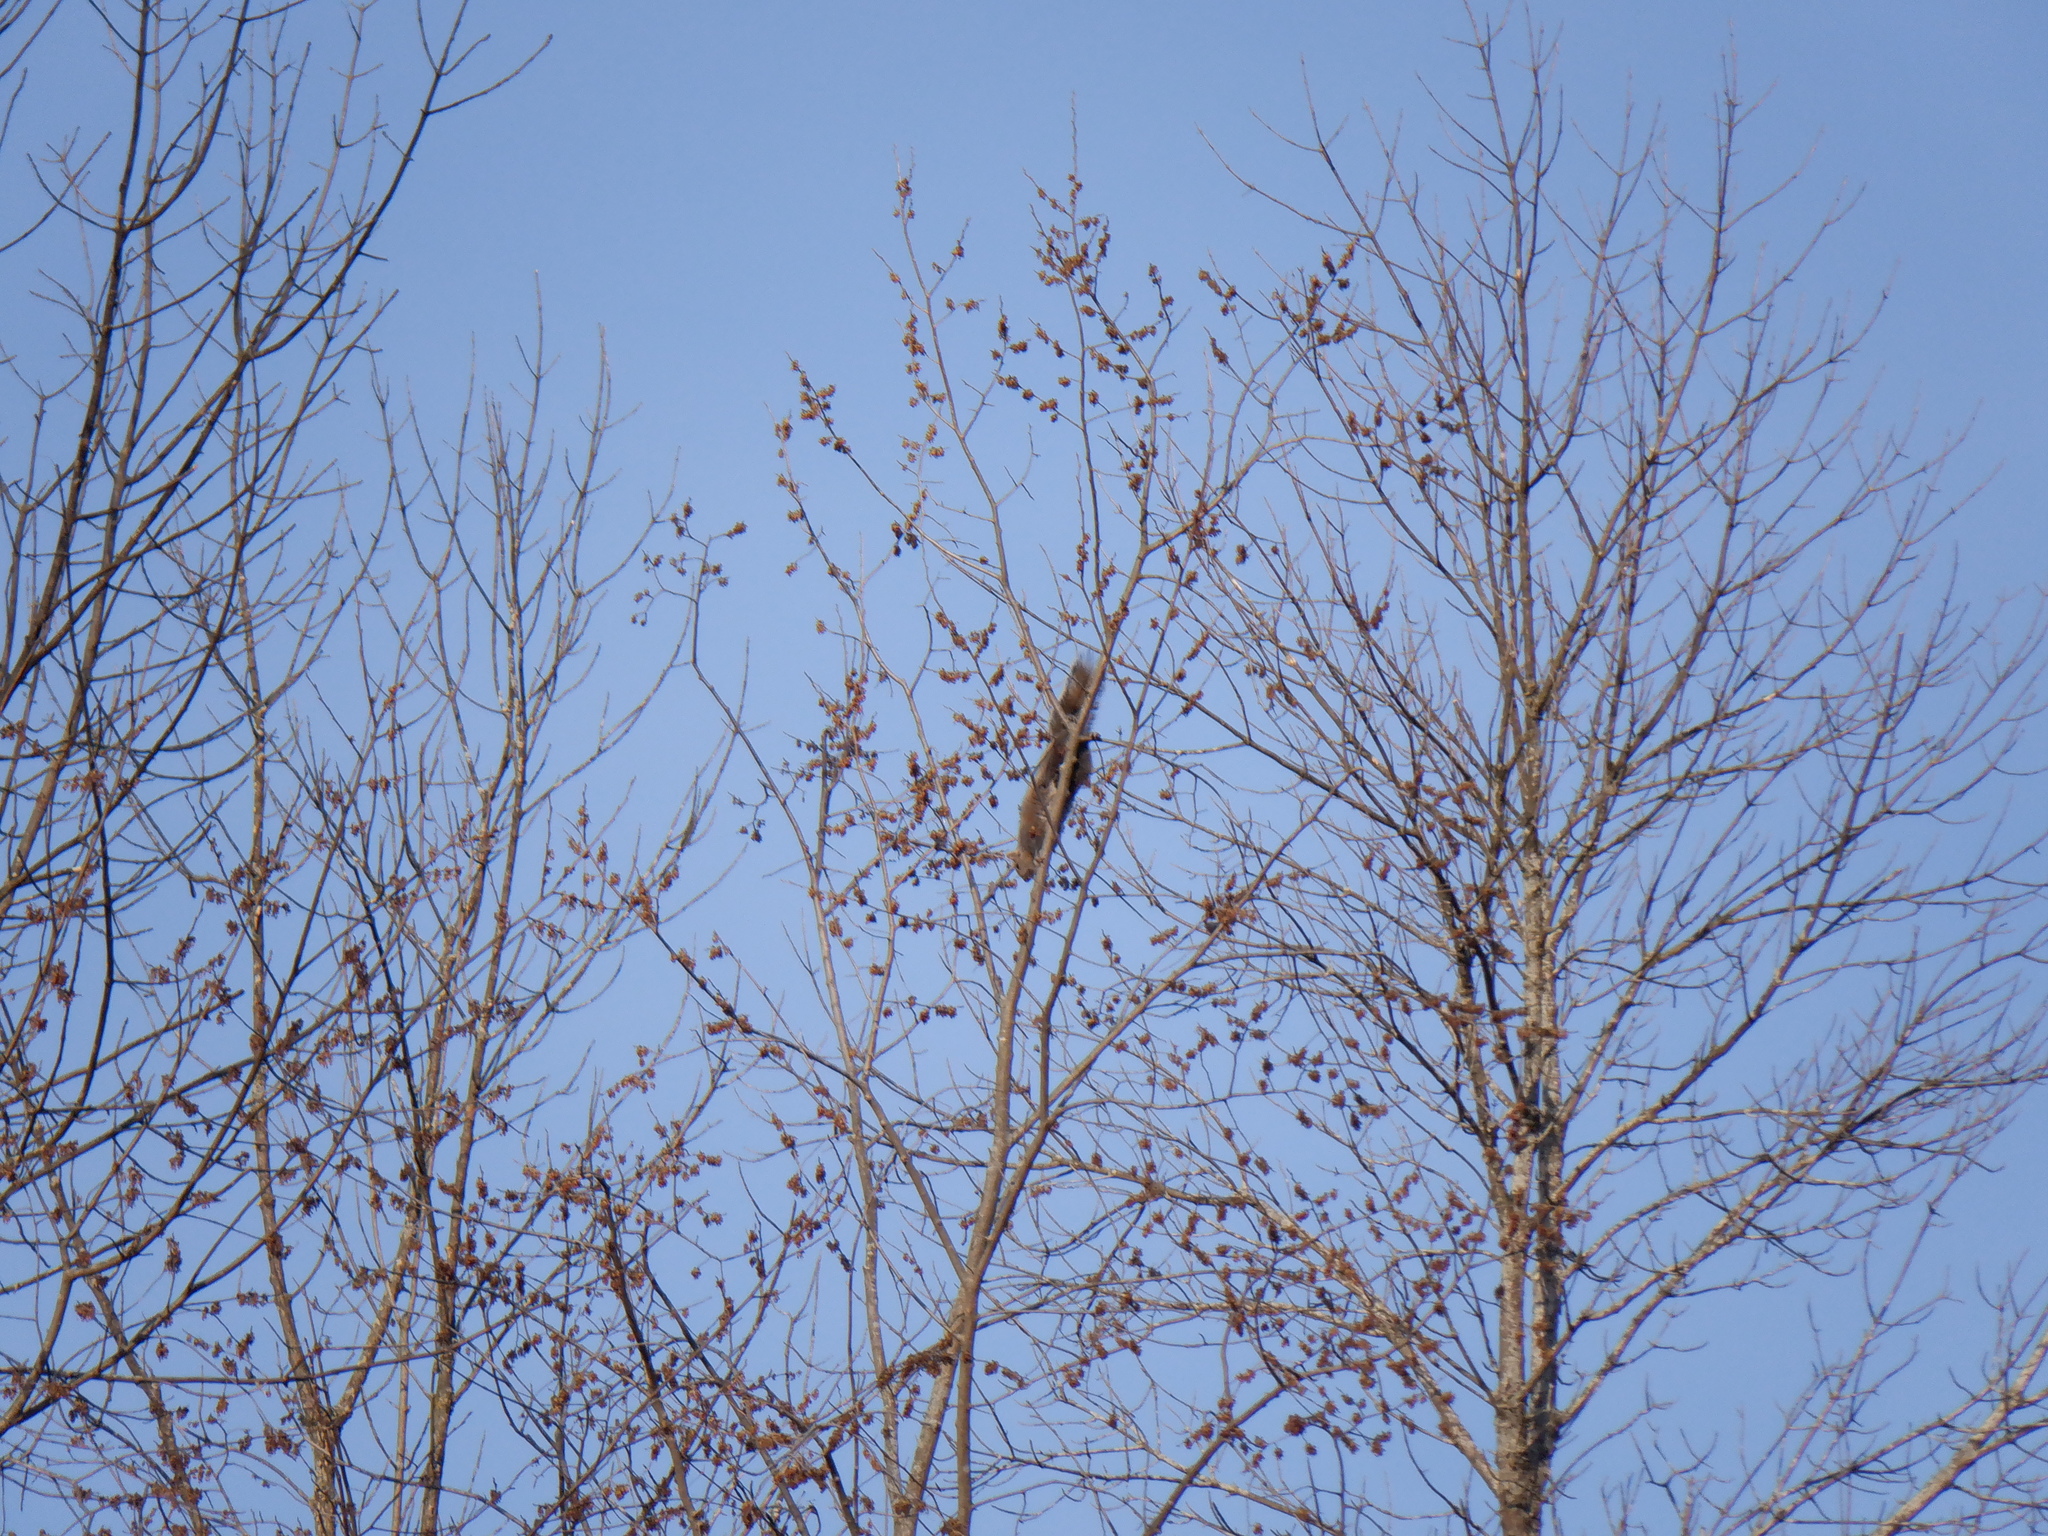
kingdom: Animalia
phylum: Chordata
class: Mammalia
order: Rodentia
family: Sciuridae
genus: Sciurus
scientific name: Sciurus carolinensis
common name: Eastern gray squirrel
